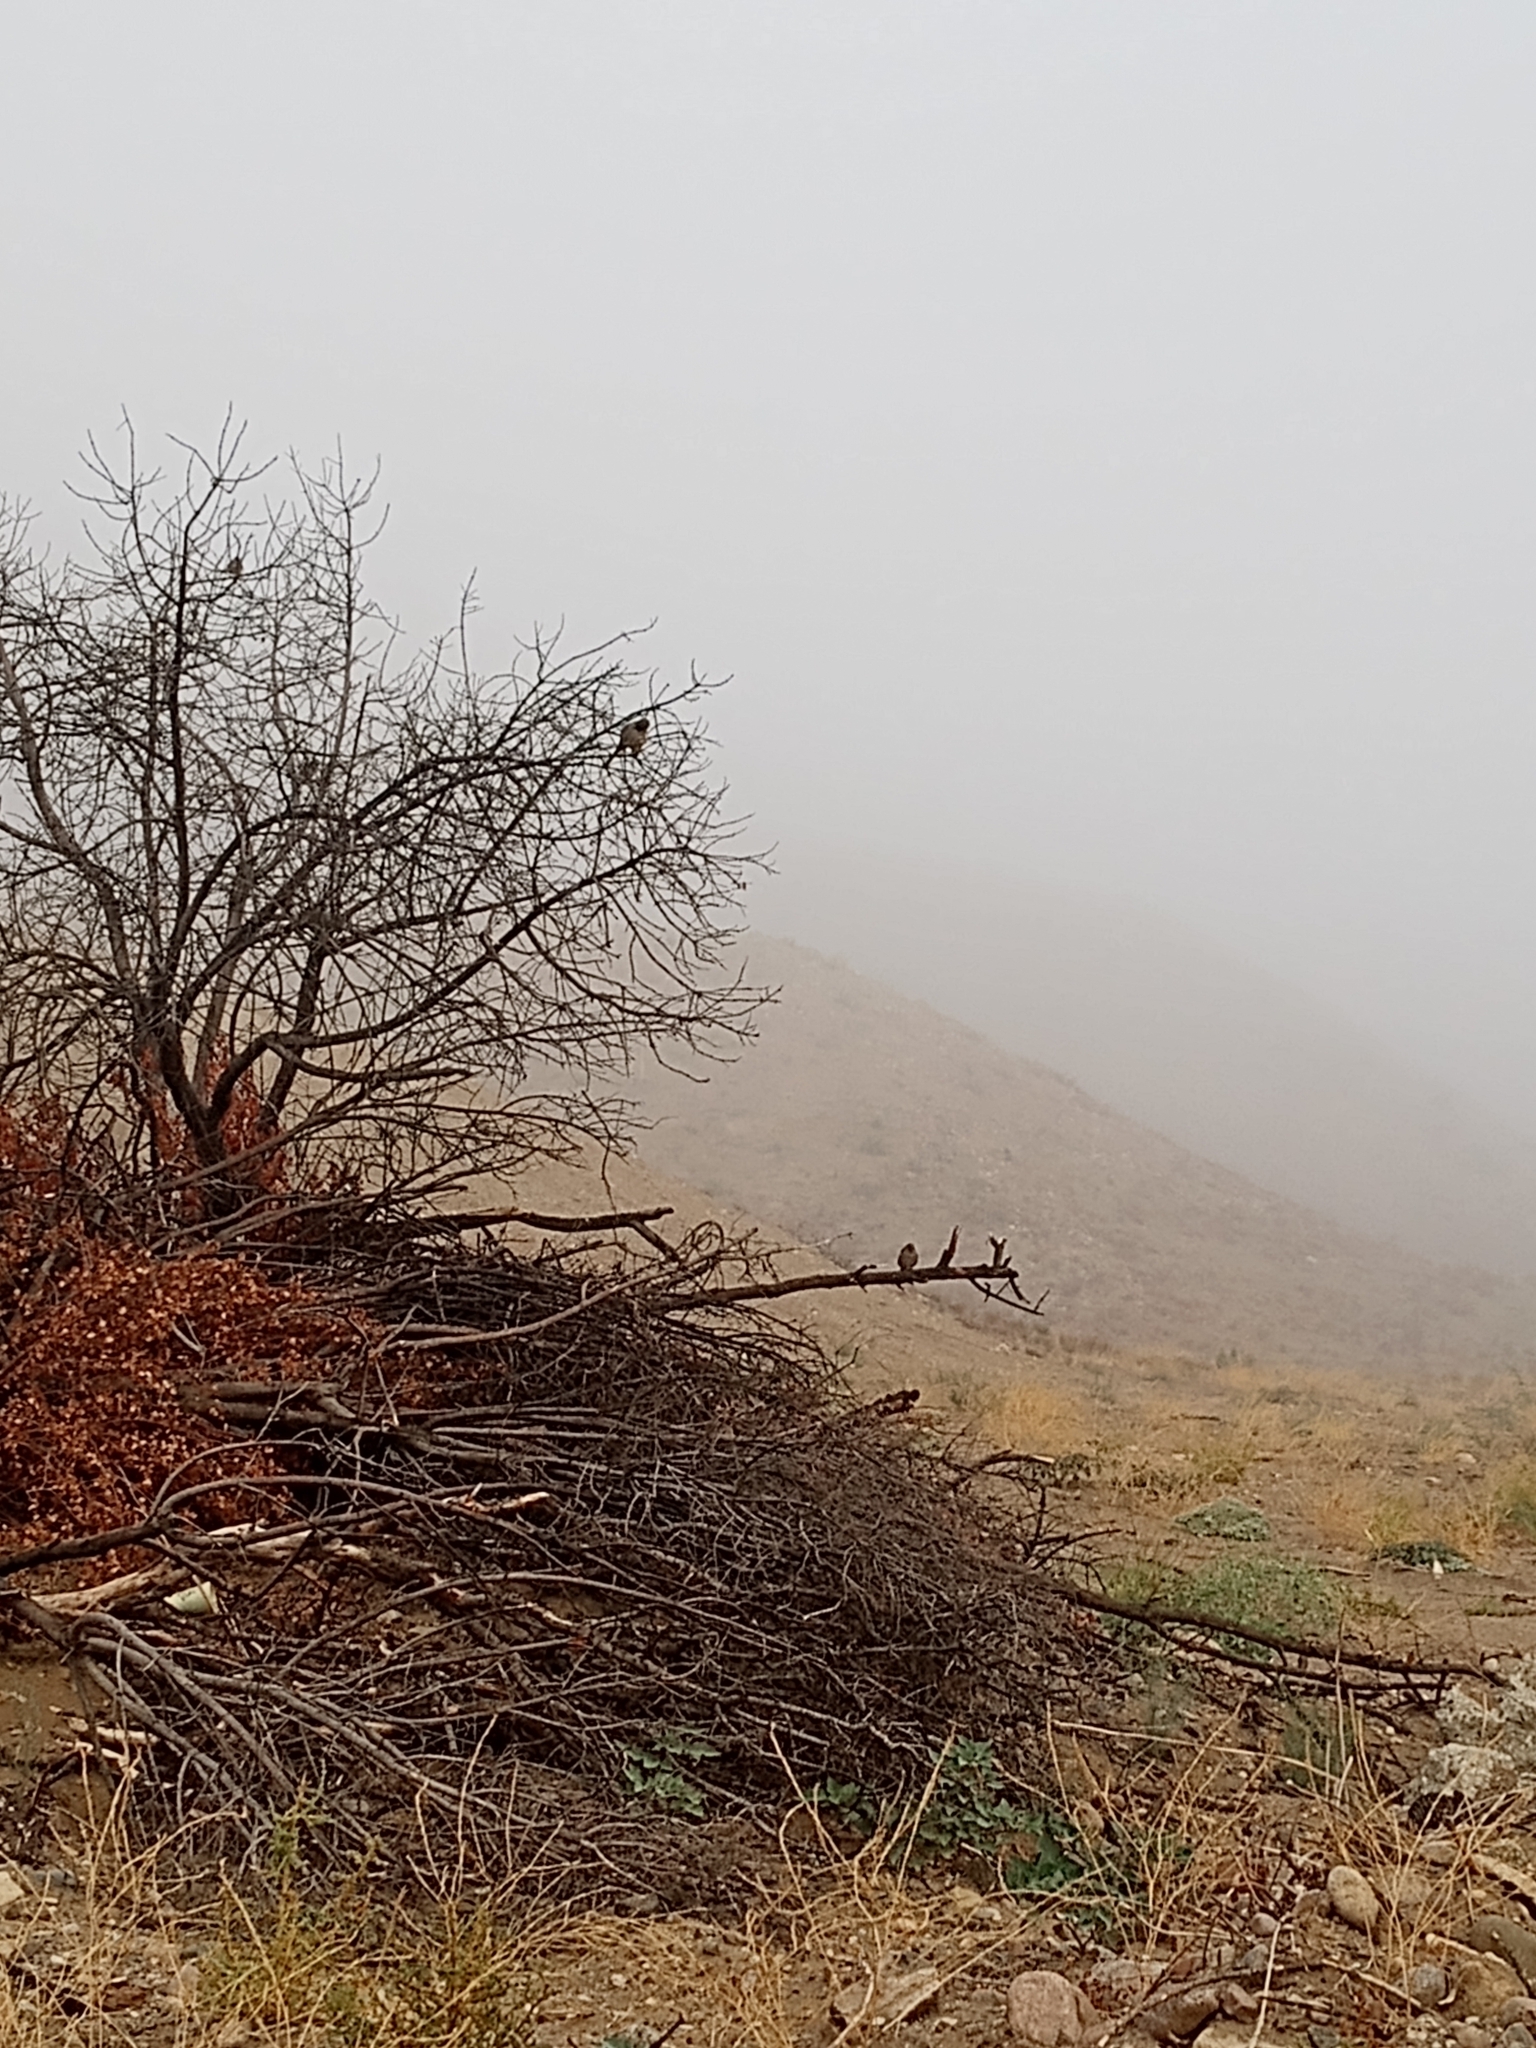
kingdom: Animalia
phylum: Chordata
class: Aves
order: Passeriformes
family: Passerellidae
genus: Melozone
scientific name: Melozone crissalis
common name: California towhee
